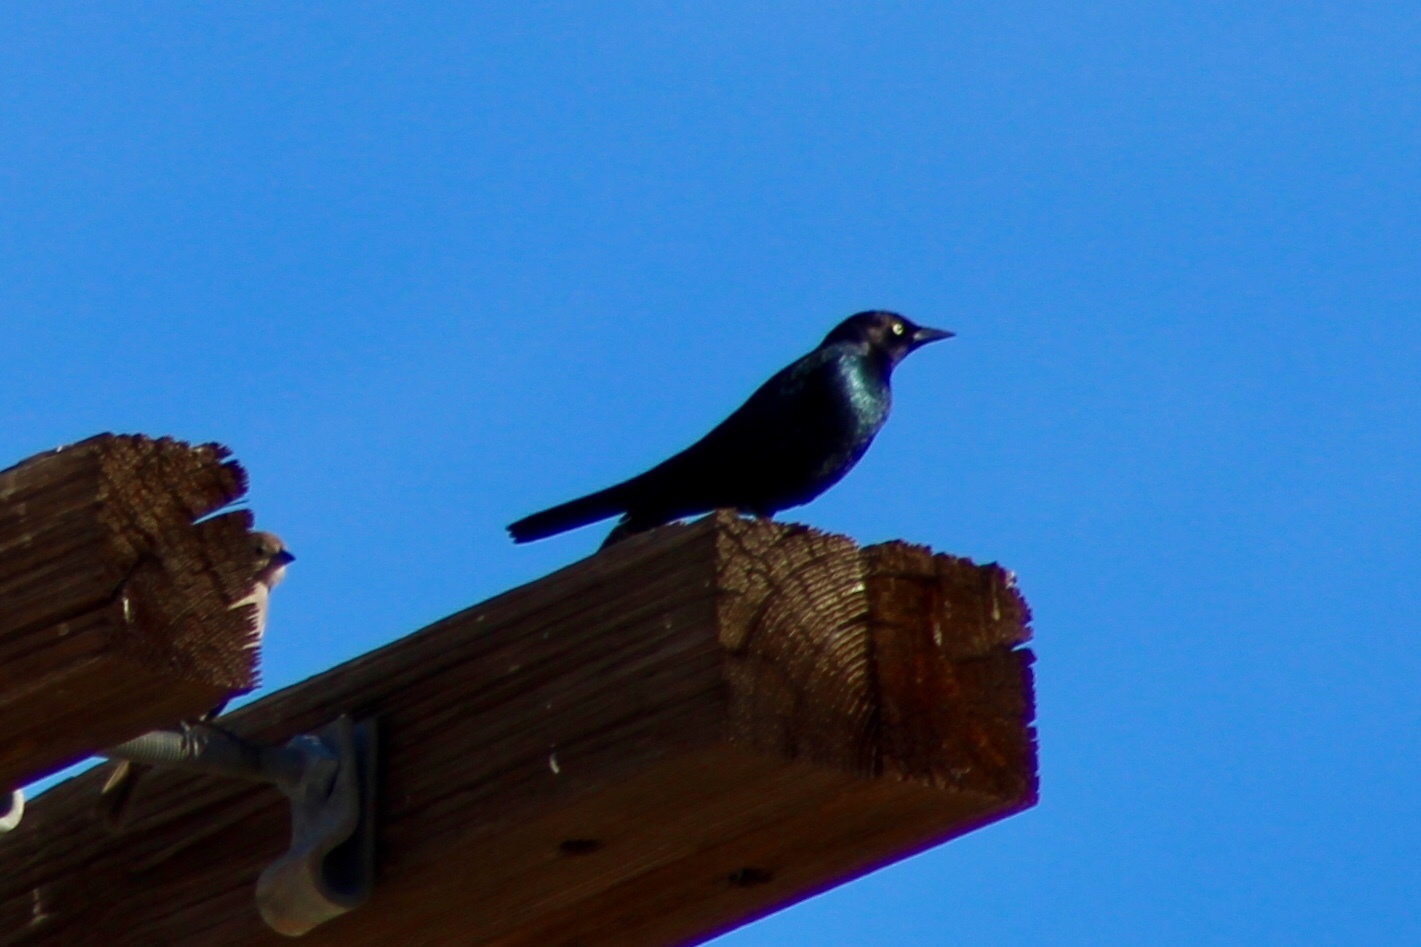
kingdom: Animalia
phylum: Chordata
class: Aves
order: Passeriformes
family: Icteridae
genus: Euphagus
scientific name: Euphagus cyanocephalus
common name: Brewer's blackbird
